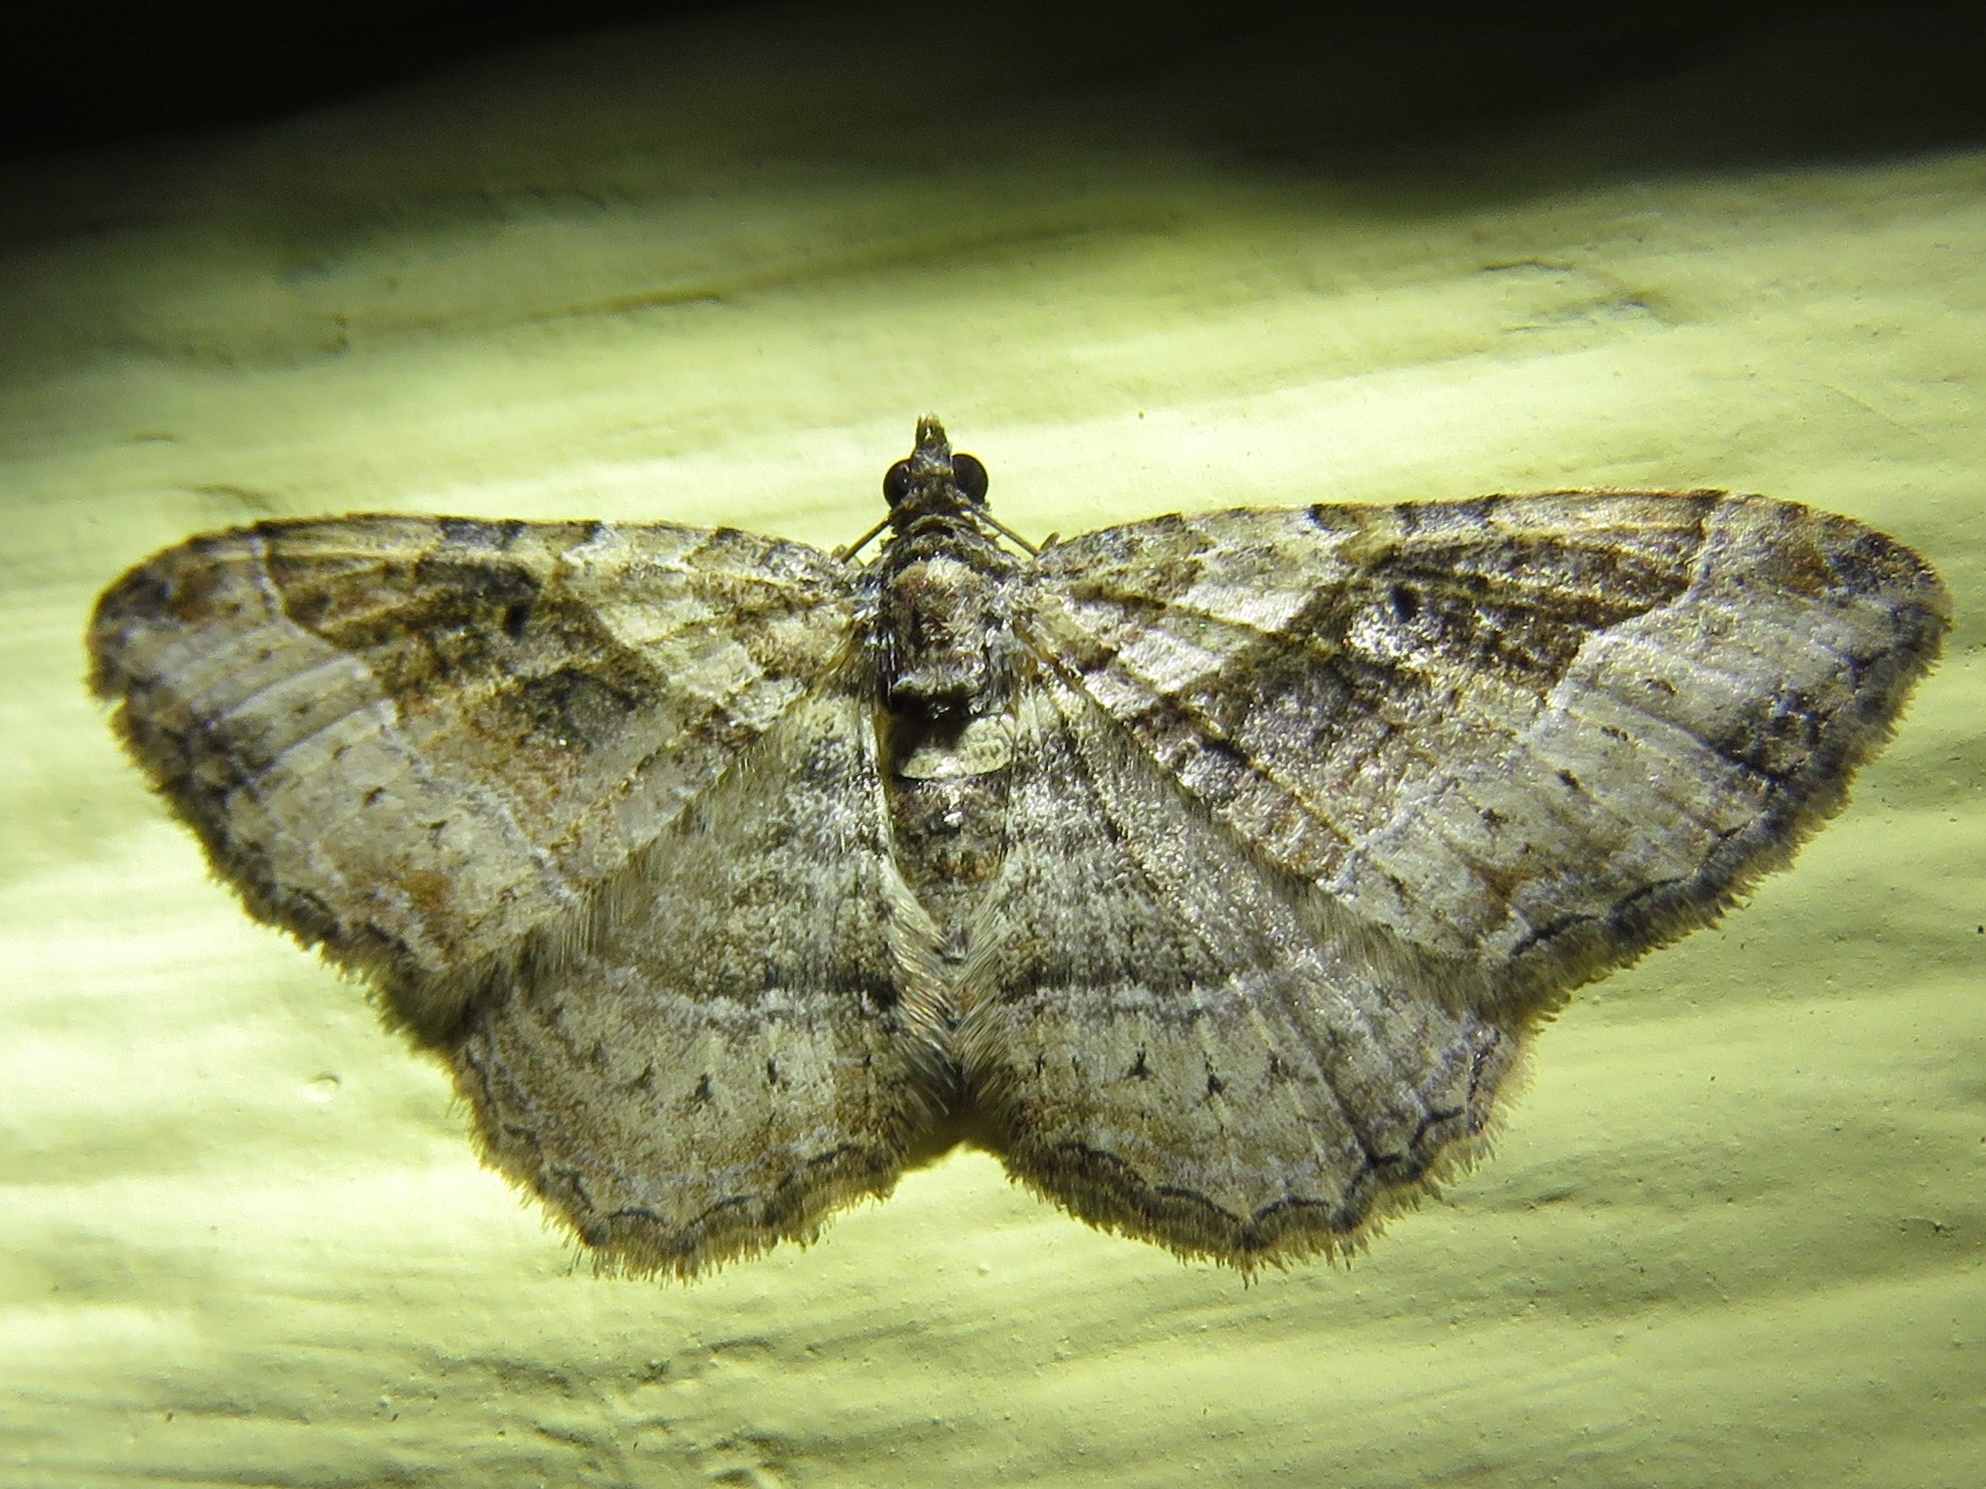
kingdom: Animalia
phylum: Arthropoda
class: Insecta
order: Lepidoptera
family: Geometridae
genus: Costaconvexa
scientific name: Costaconvexa centrostrigaria
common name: Bent-line carpet
